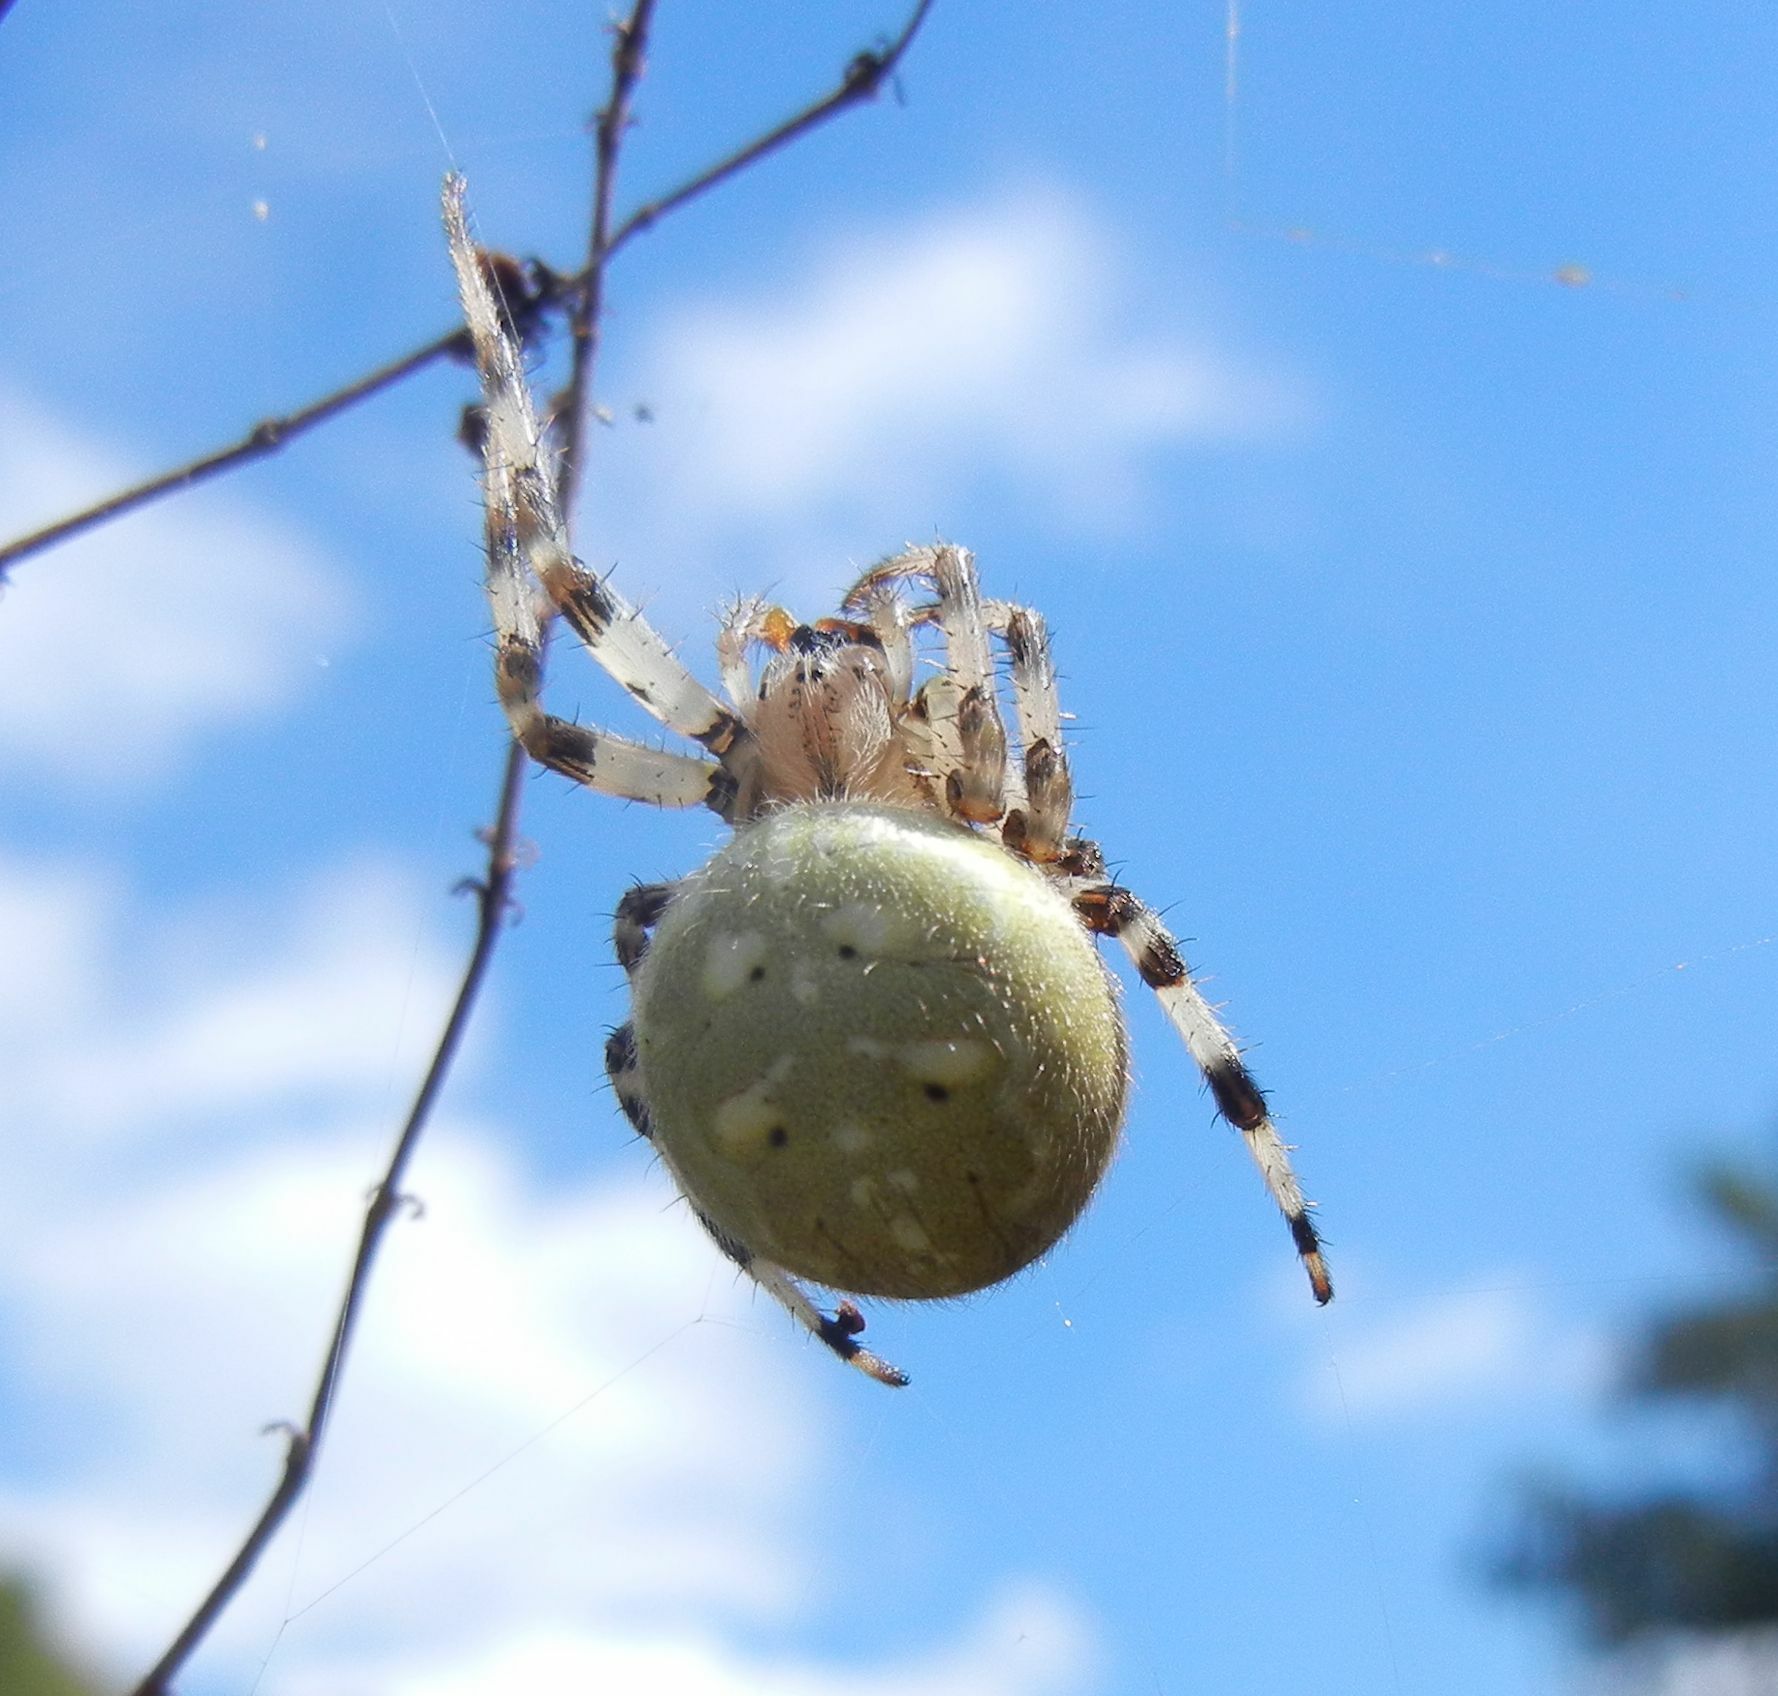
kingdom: Animalia
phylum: Arthropoda
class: Arachnida
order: Araneae
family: Araneidae
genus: Araneus
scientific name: Araneus quadratus
